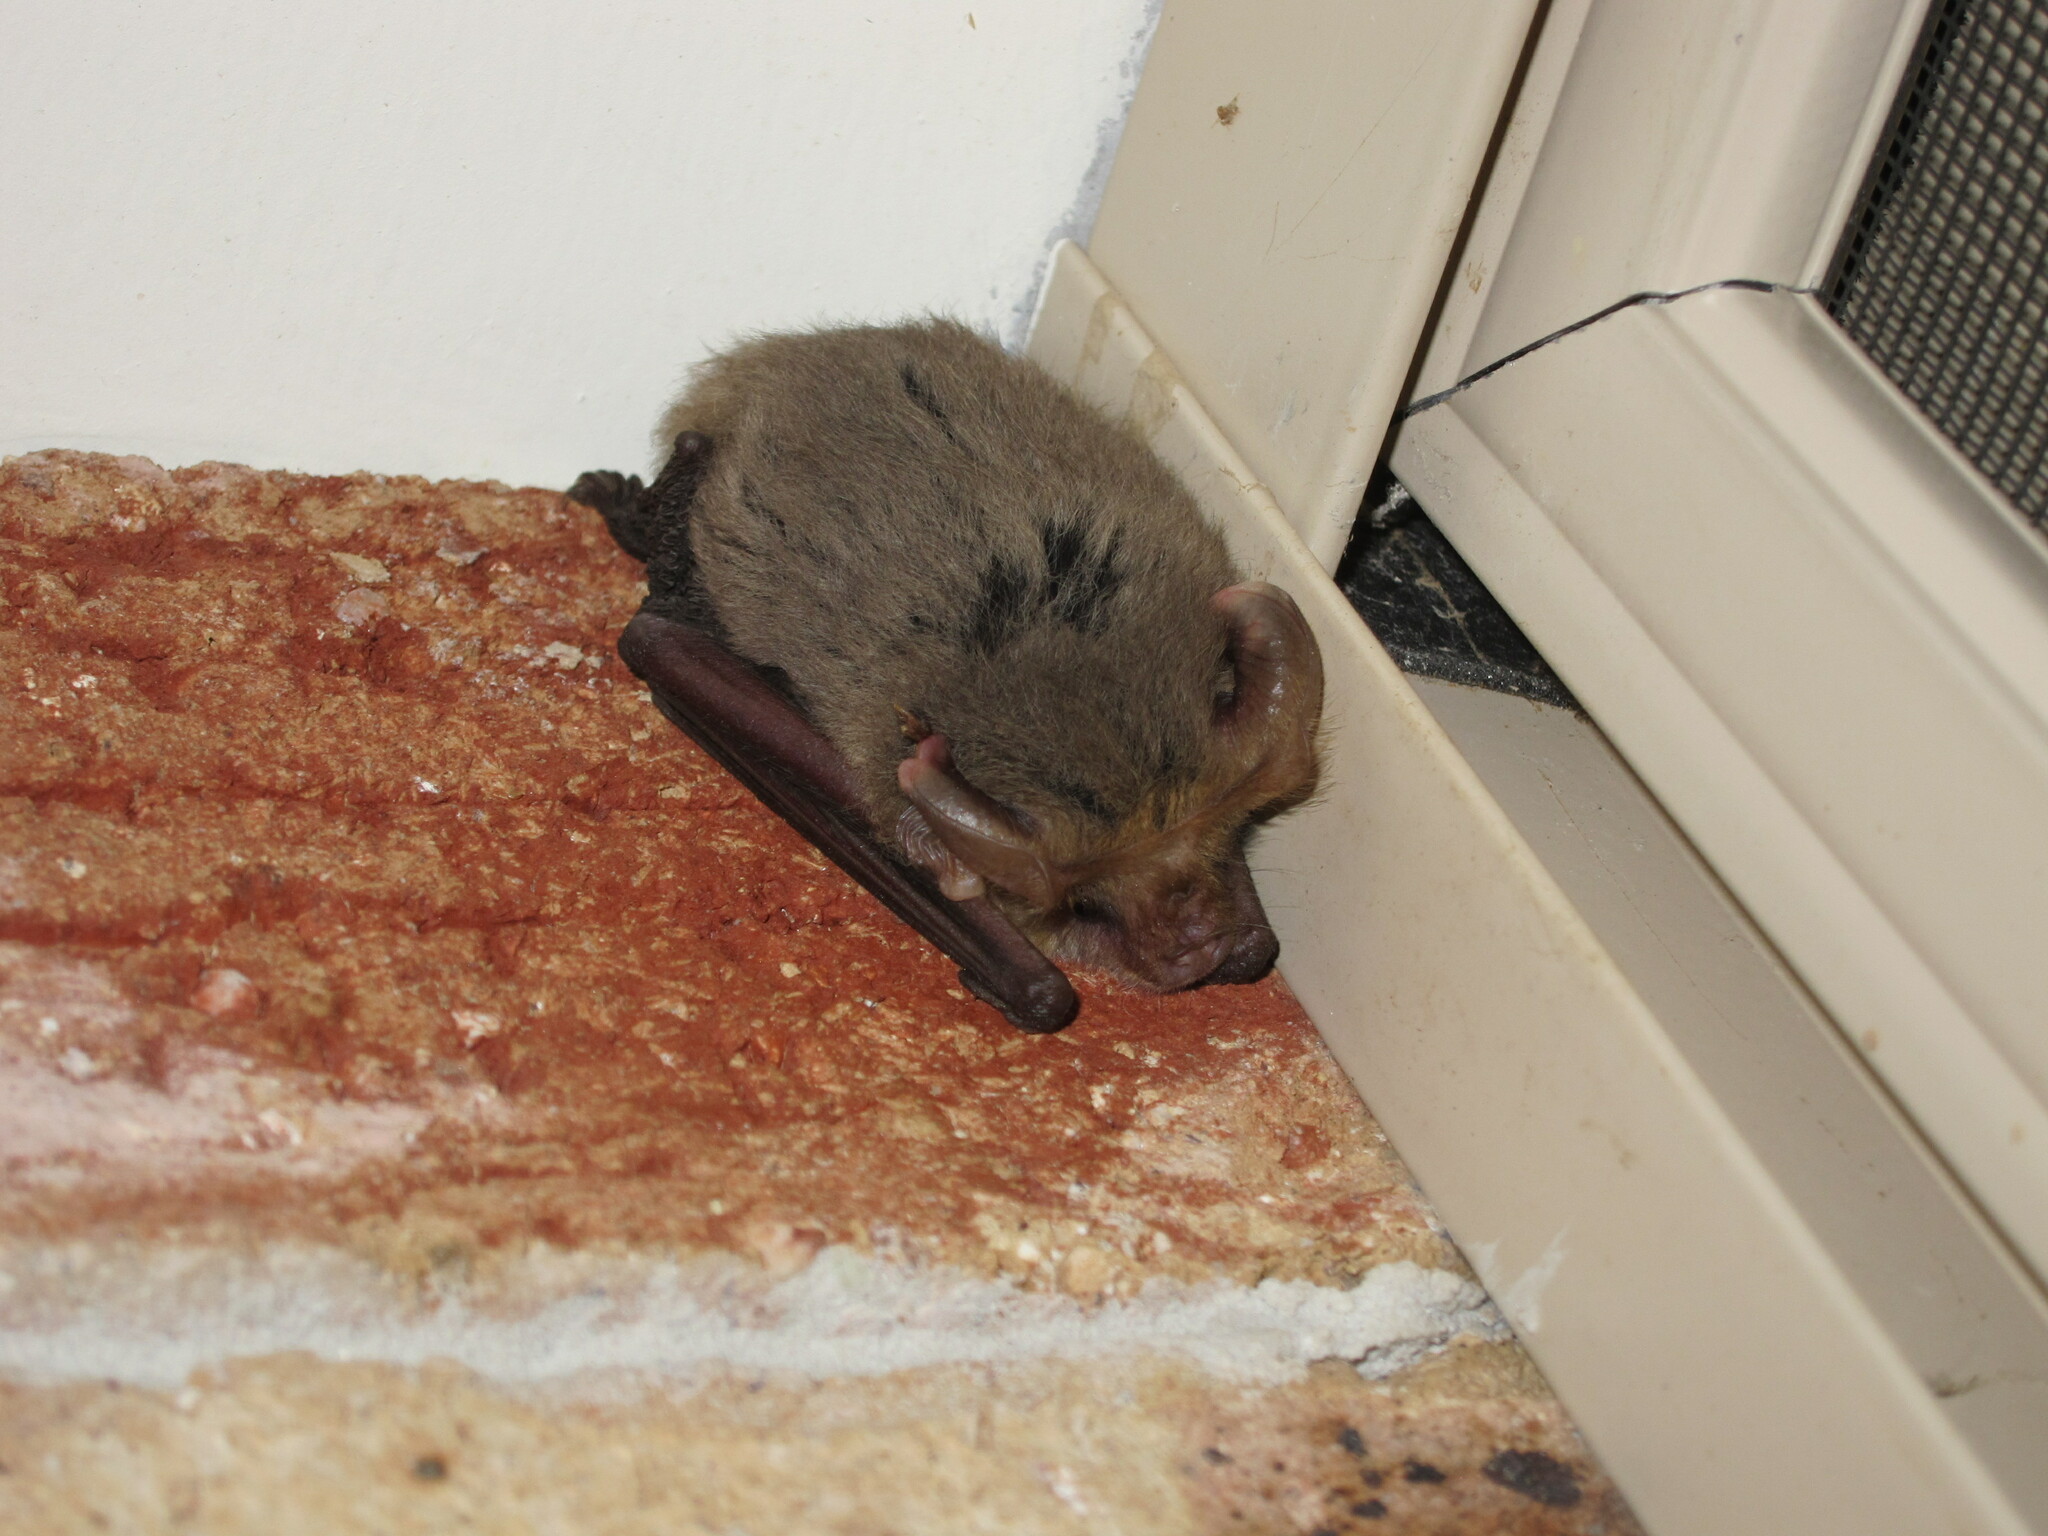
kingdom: Animalia
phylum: Chordata
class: Mammalia
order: Chiroptera
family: Vespertilionidae
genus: Nyctophilus
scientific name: Nyctophilus geoffroyi
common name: Lesser long-eared bat
